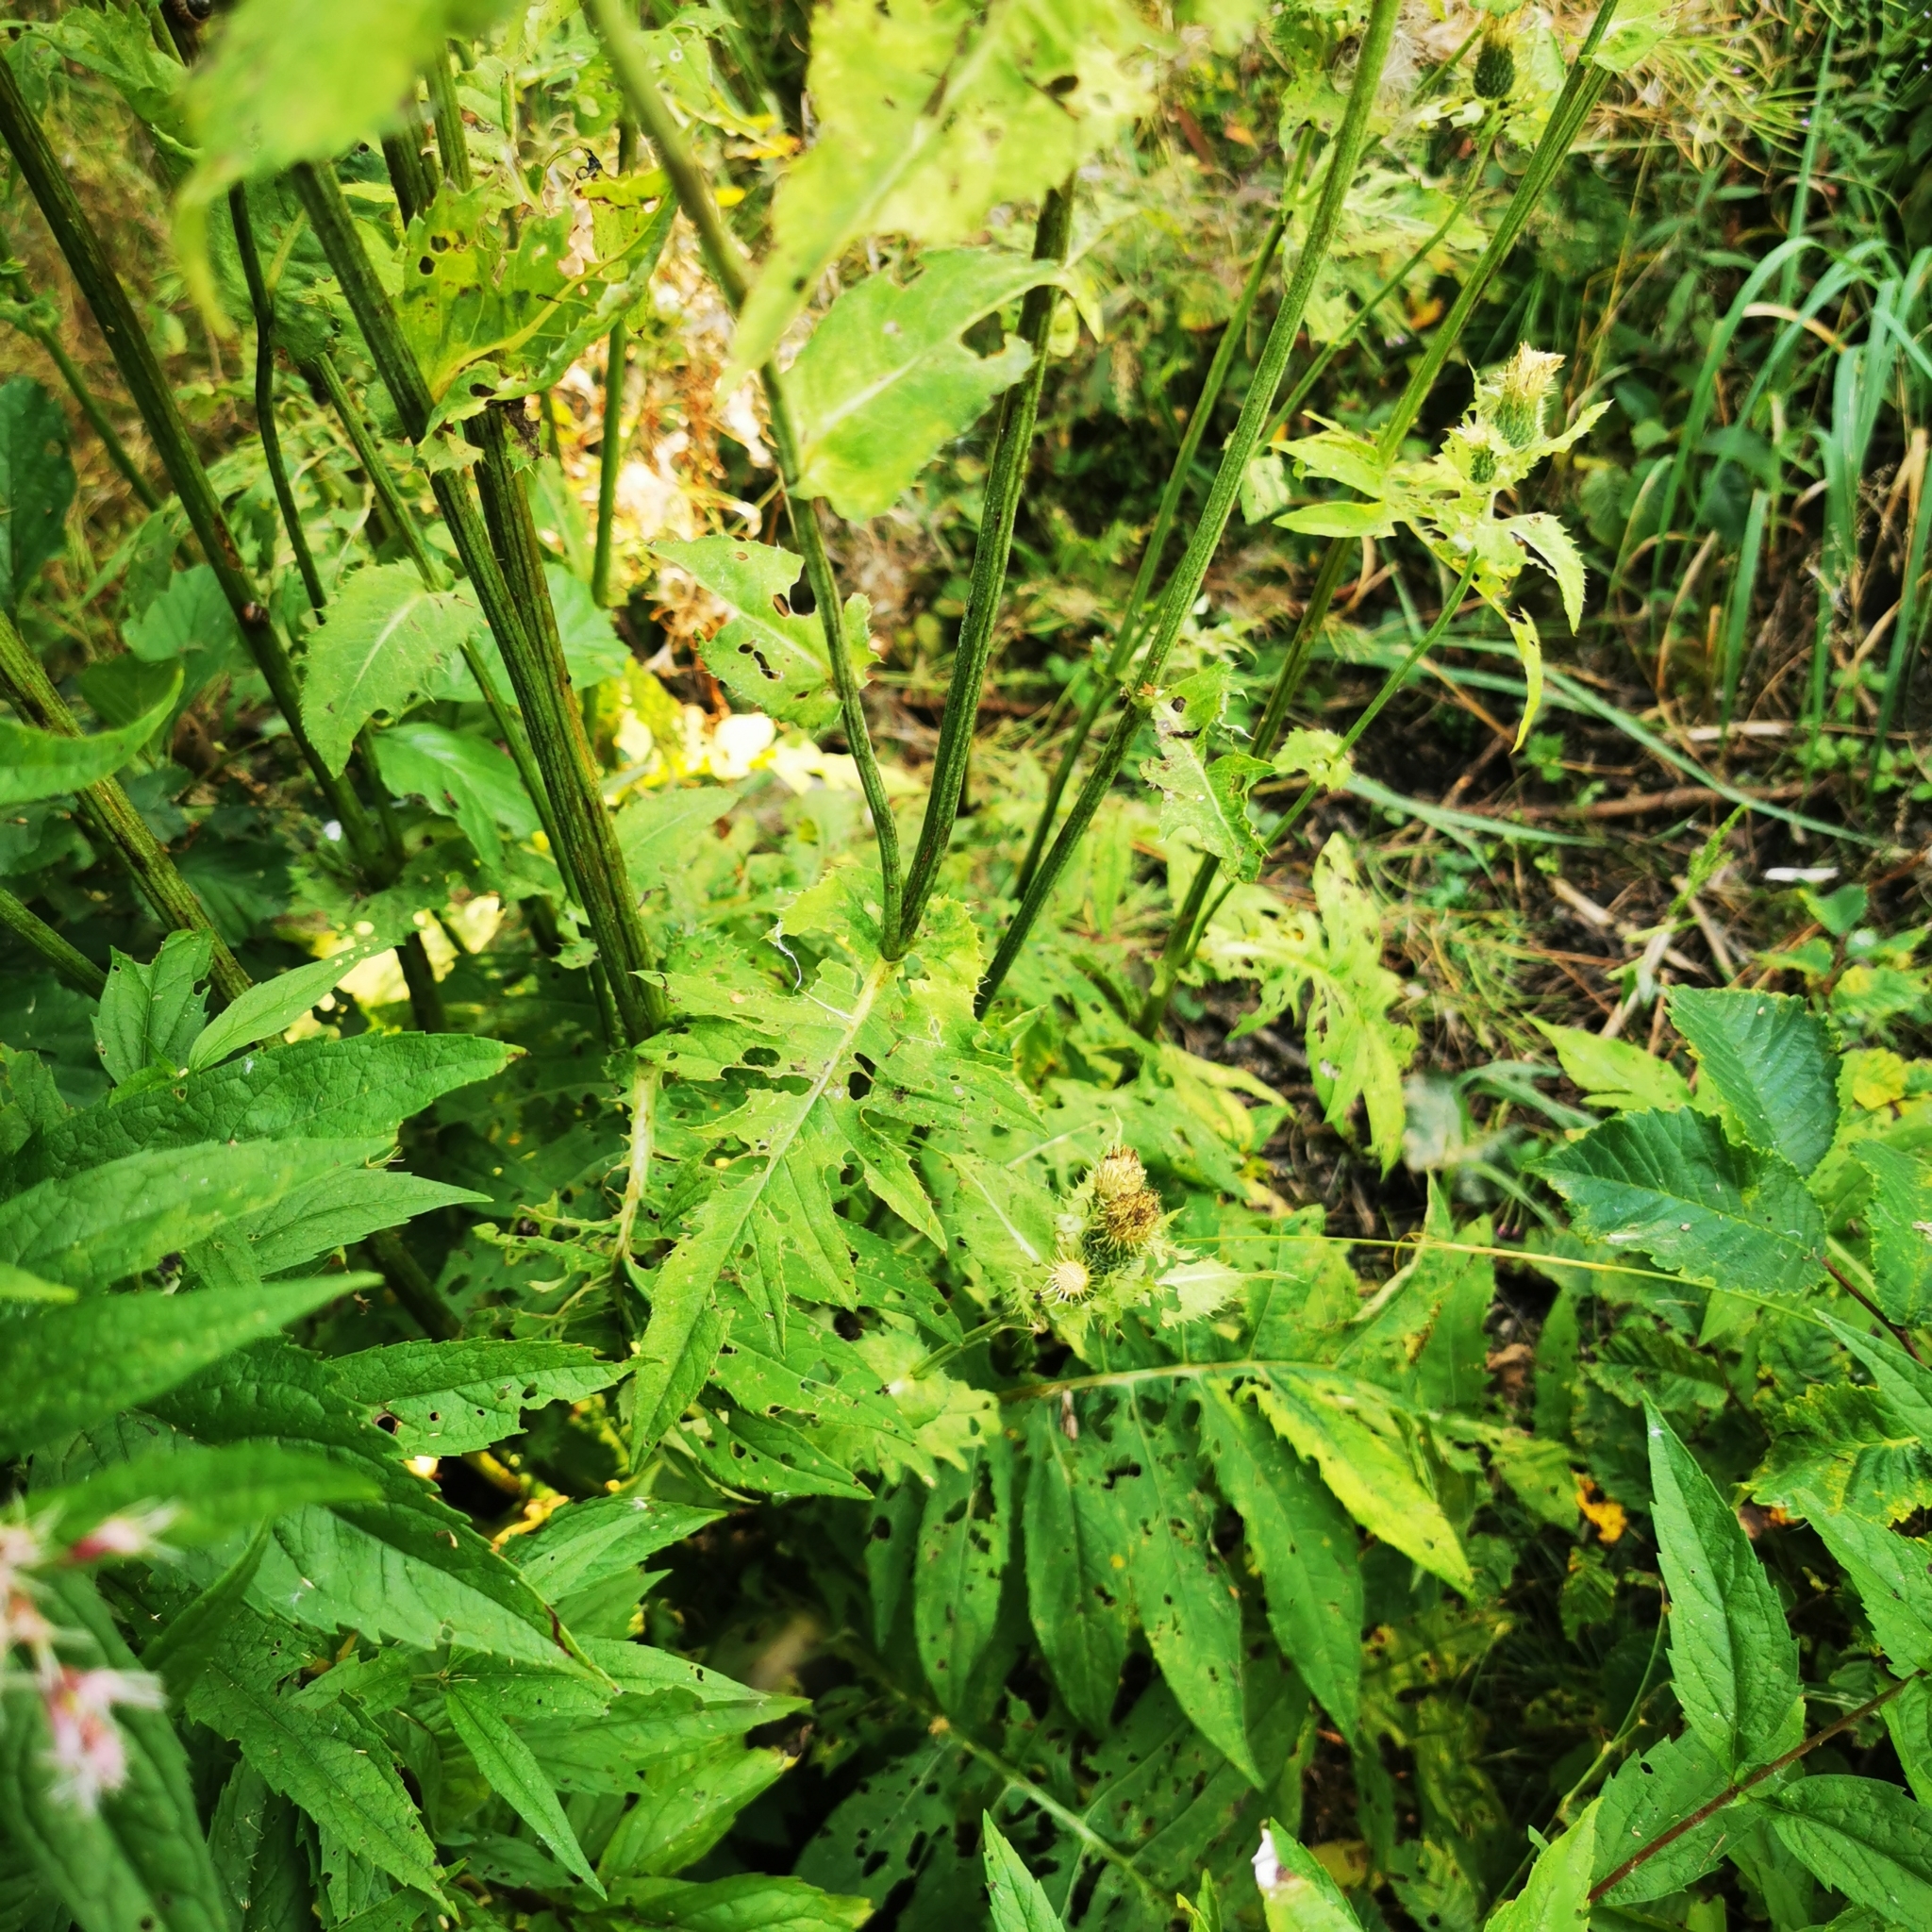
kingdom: Plantae
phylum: Tracheophyta
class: Magnoliopsida
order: Asterales
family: Asteraceae
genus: Cirsium
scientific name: Cirsium oleraceum
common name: Cabbage thistle
